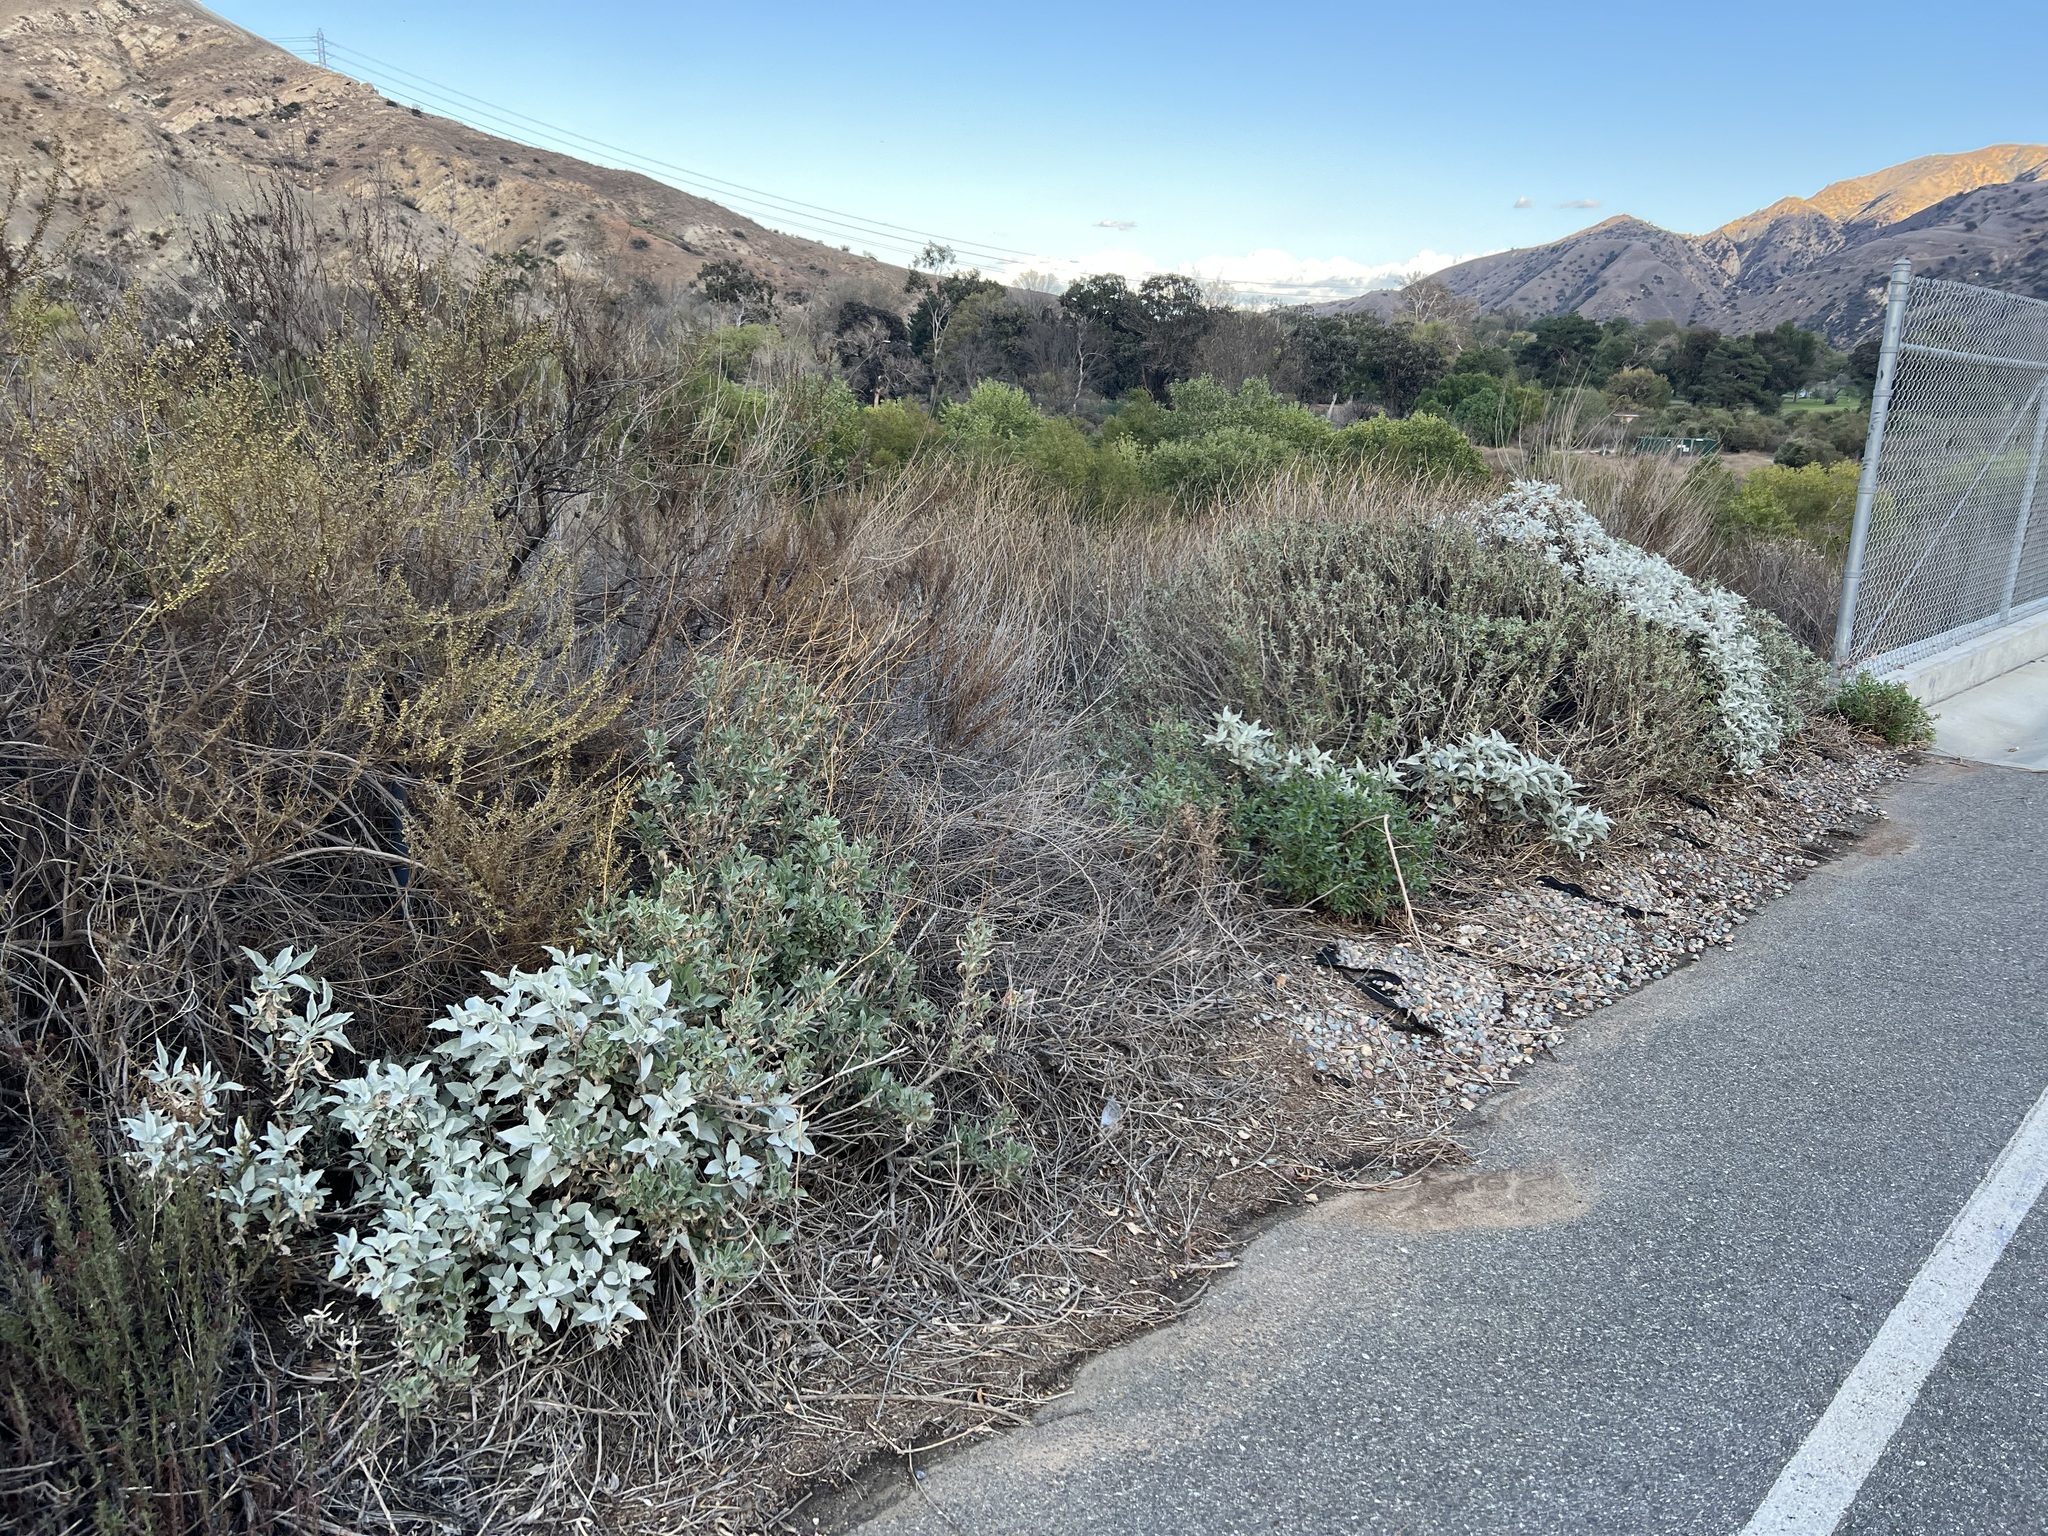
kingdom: Plantae
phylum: Tracheophyta
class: Magnoliopsida
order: Asterales
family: Asteraceae
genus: Encelia
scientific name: Encelia farinosa
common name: Brittlebush
